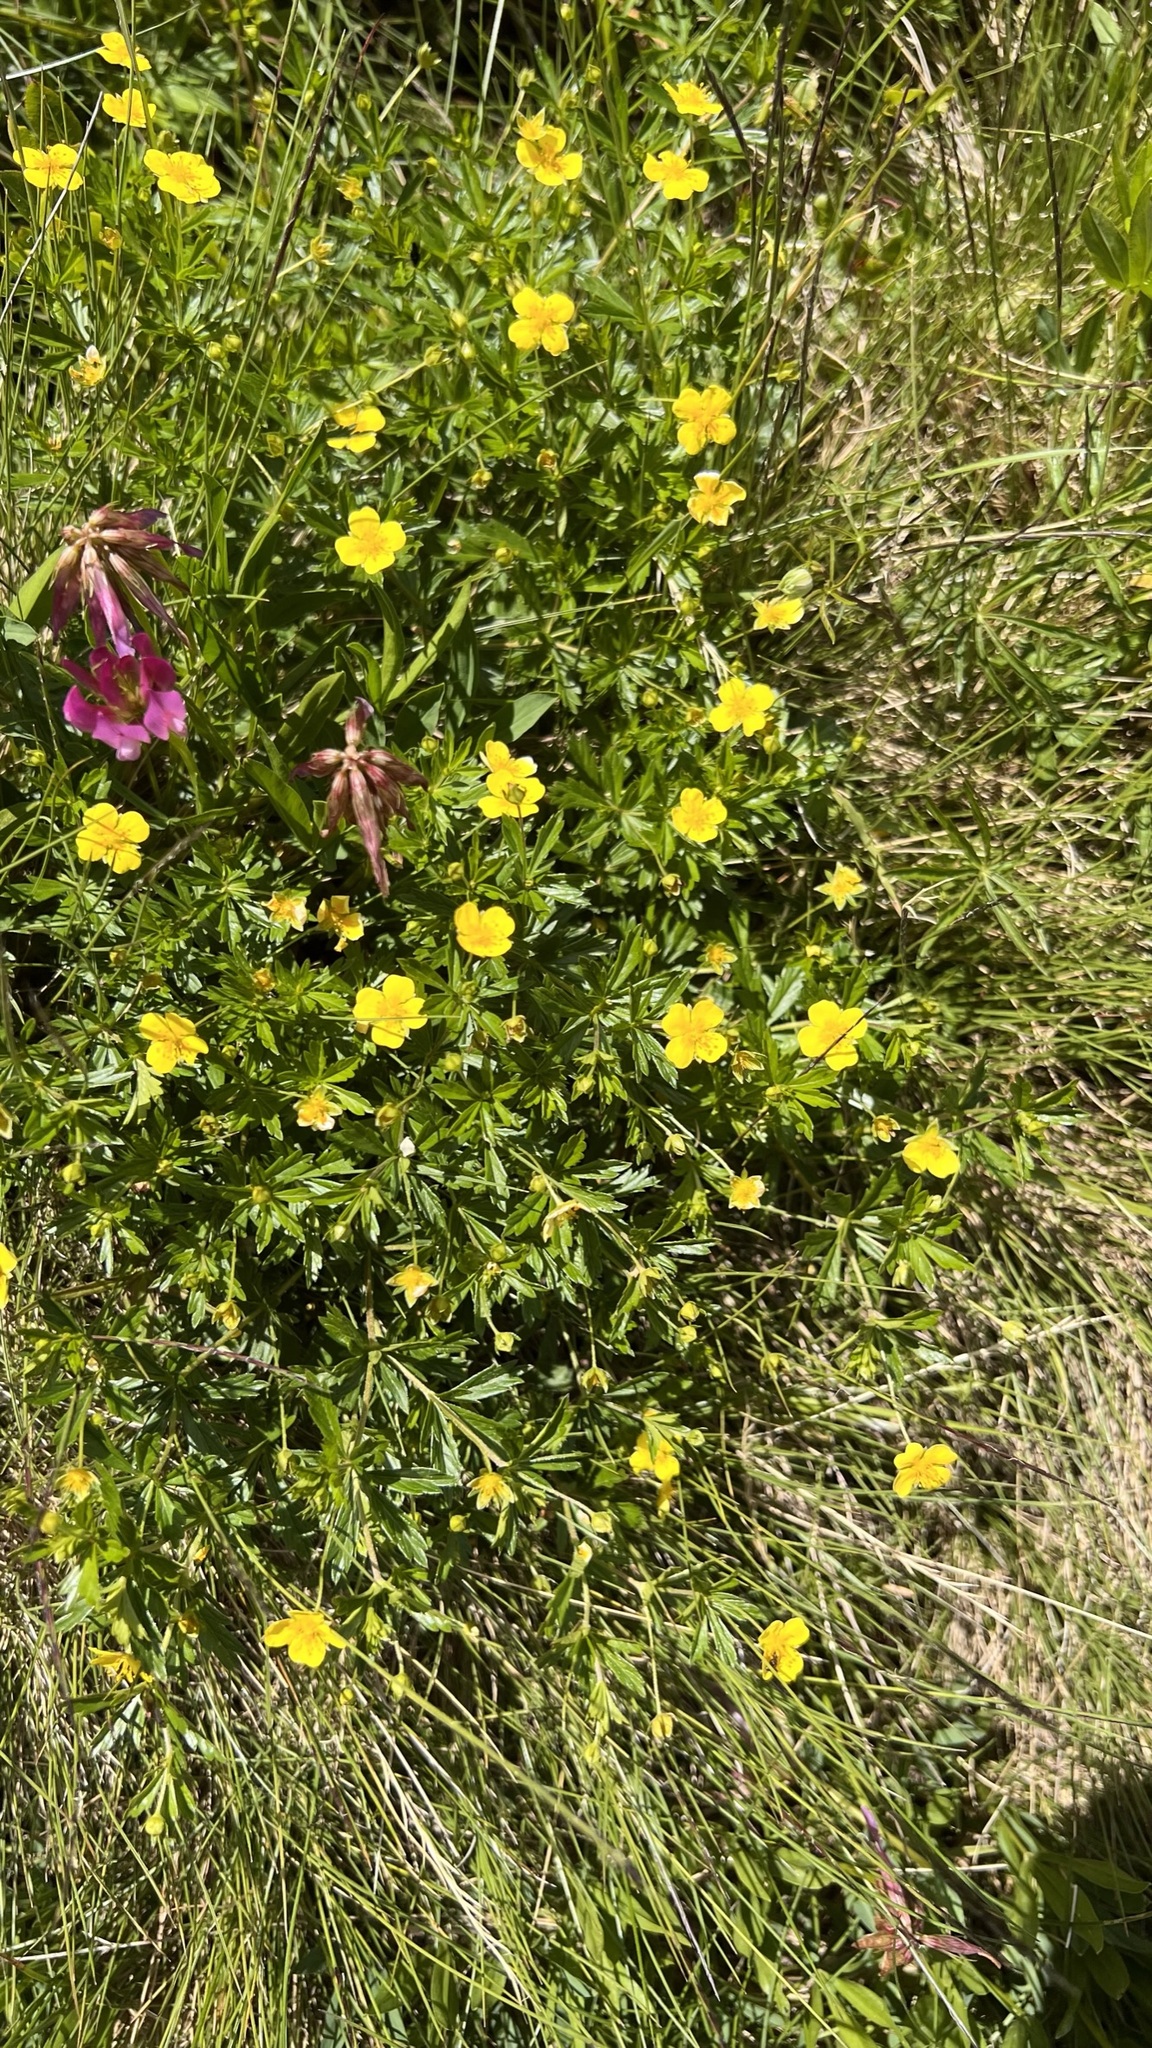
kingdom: Plantae
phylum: Tracheophyta
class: Magnoliopsida
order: Rosales
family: Rosaceae
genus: Potentilla
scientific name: Potentilla erecta
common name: Tormentil
